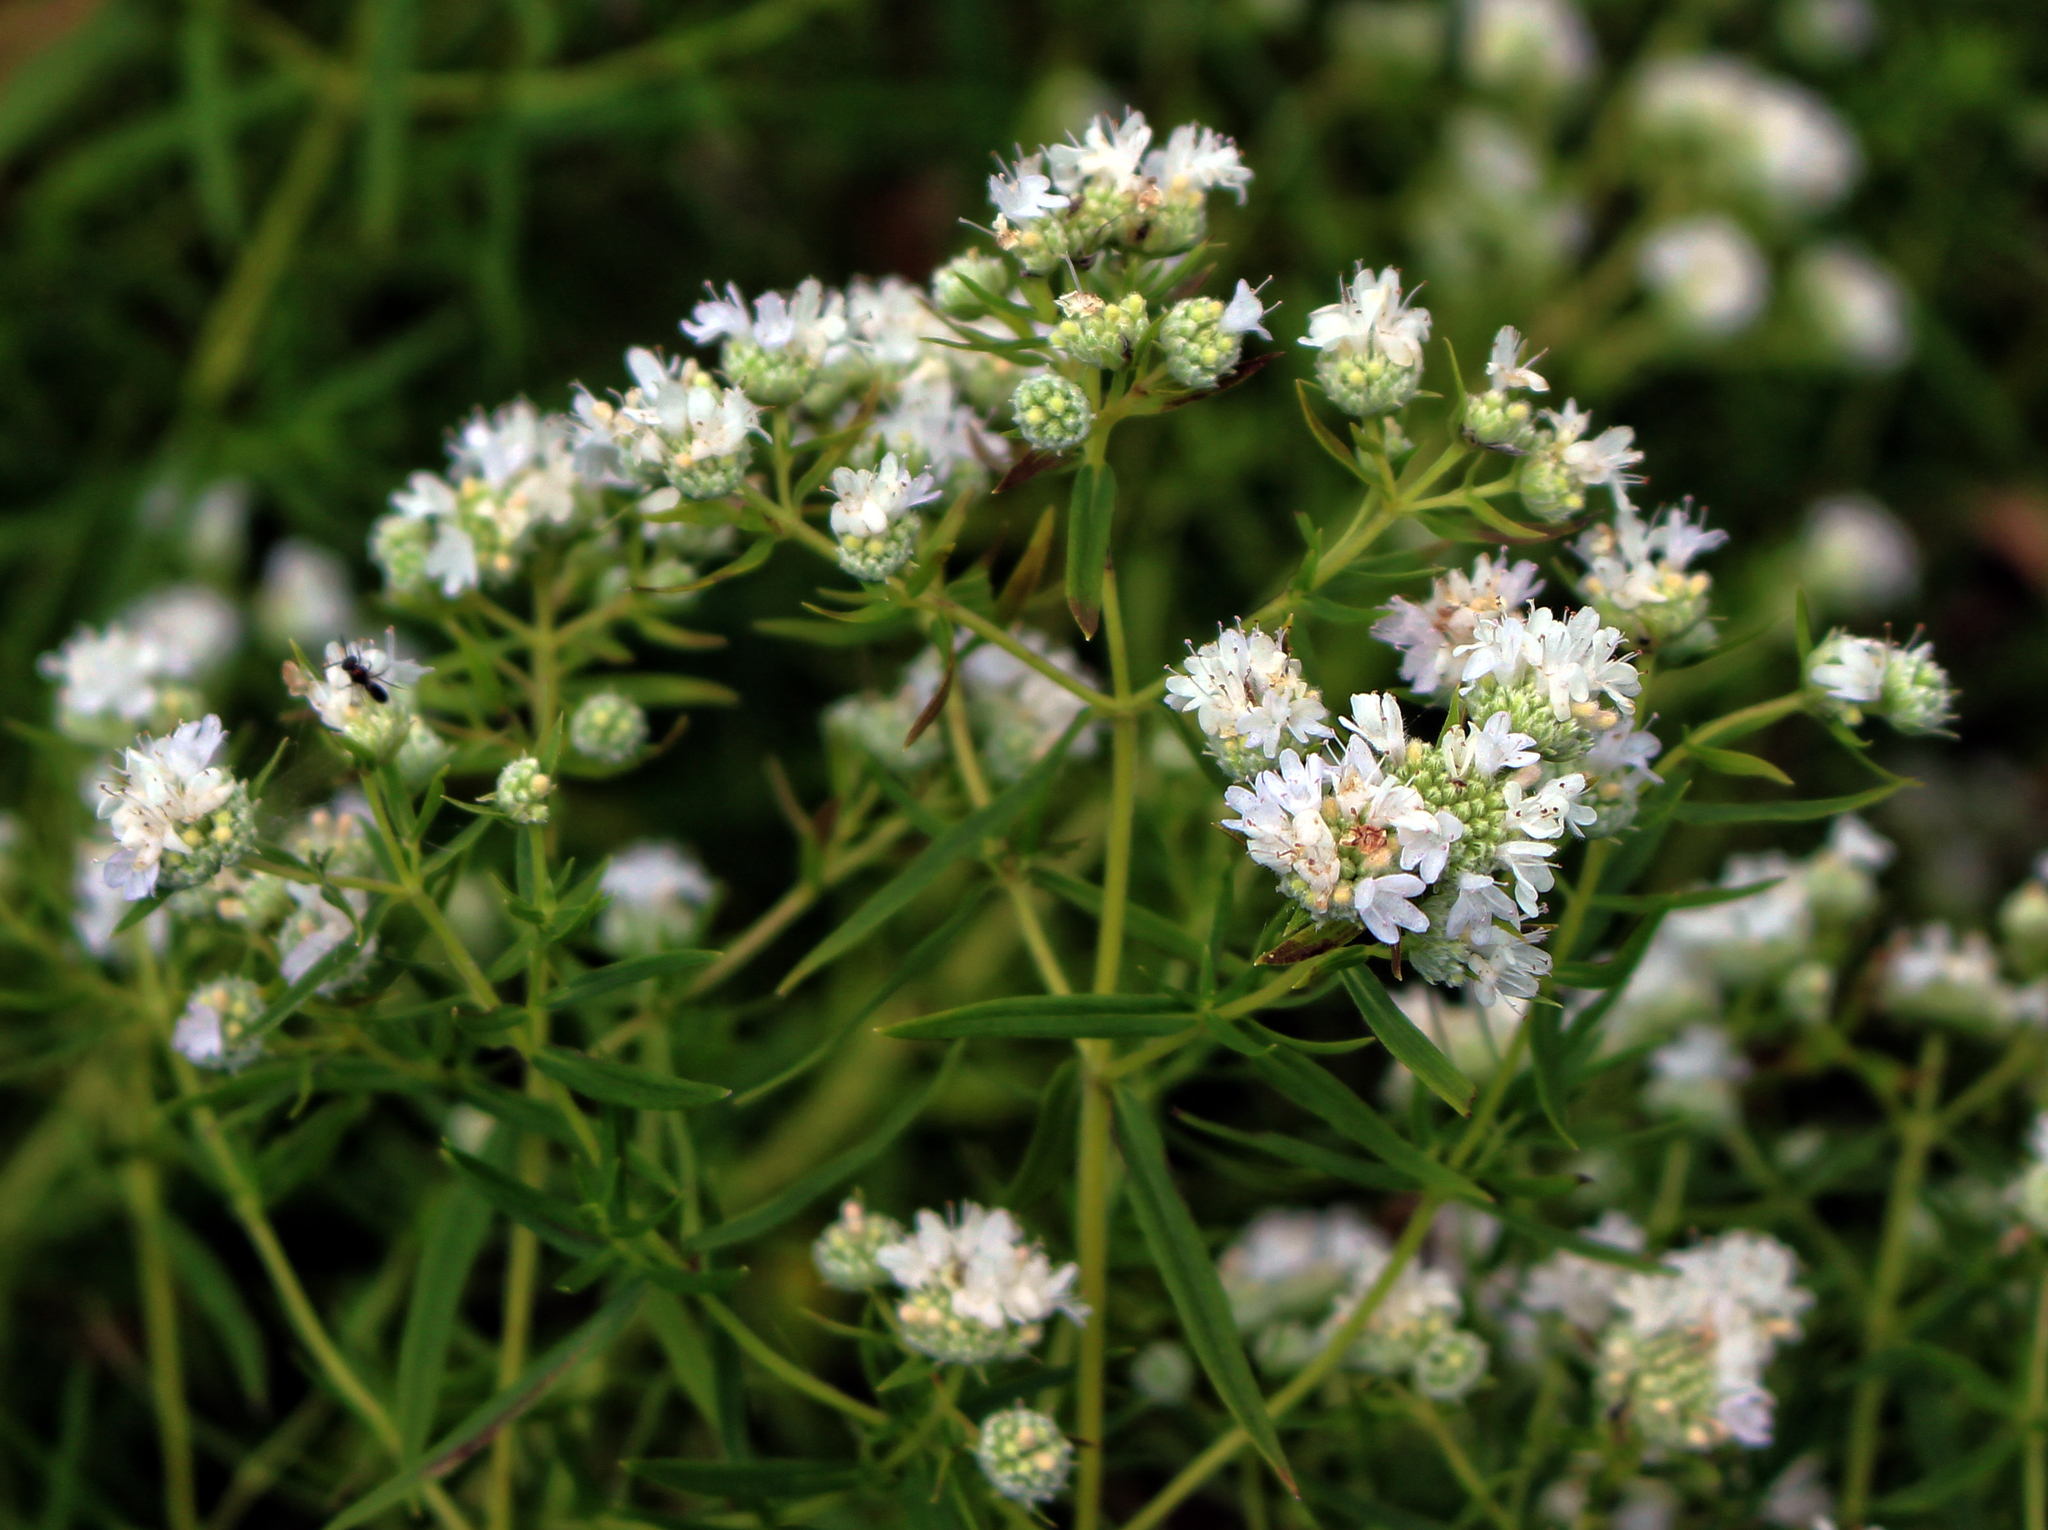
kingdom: Plantae
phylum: Tracheophyta
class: Magnoliopsida
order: Lamiales
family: Lamiaceae
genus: Pycnanthemum
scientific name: Pycnanthemum virginianum
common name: Virginia mountain-mint
